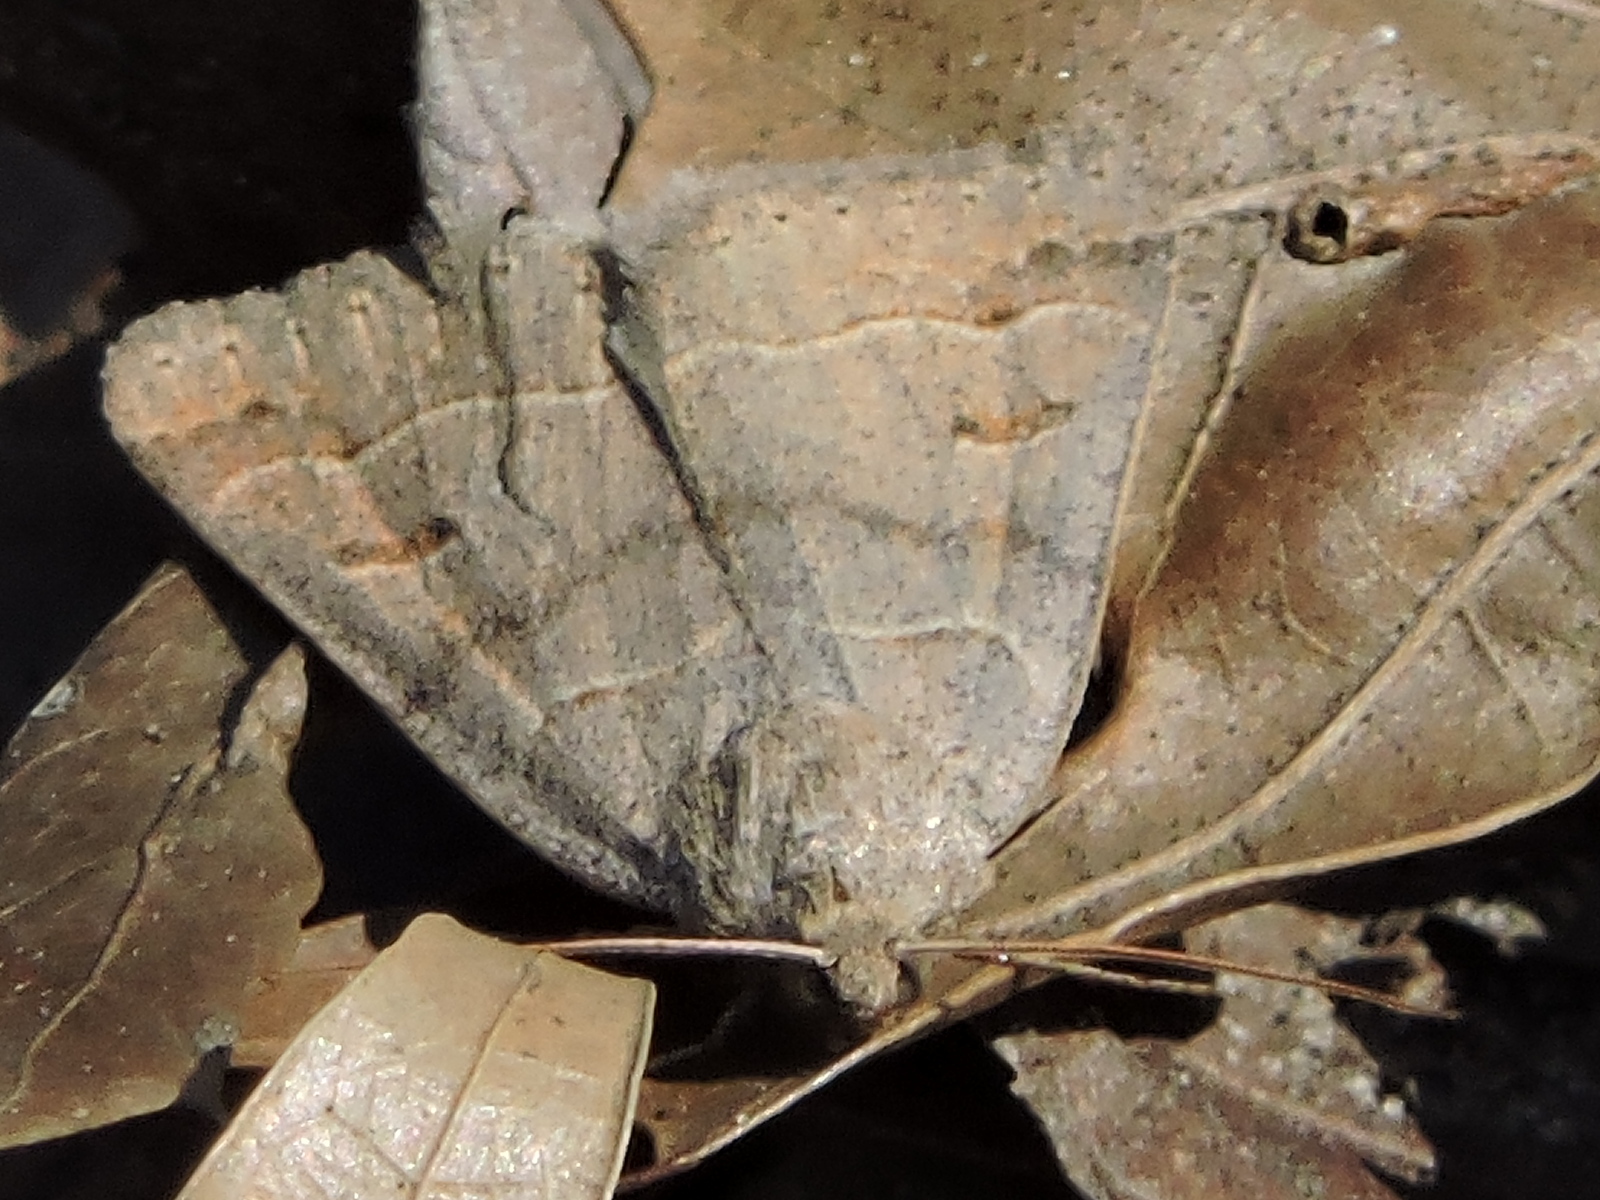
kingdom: Animalia
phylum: Arthropoda
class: Insecta
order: Lepidoptera
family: Erebidae
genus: Phoberia
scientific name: Phoberia atomaris
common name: Common oak moth
